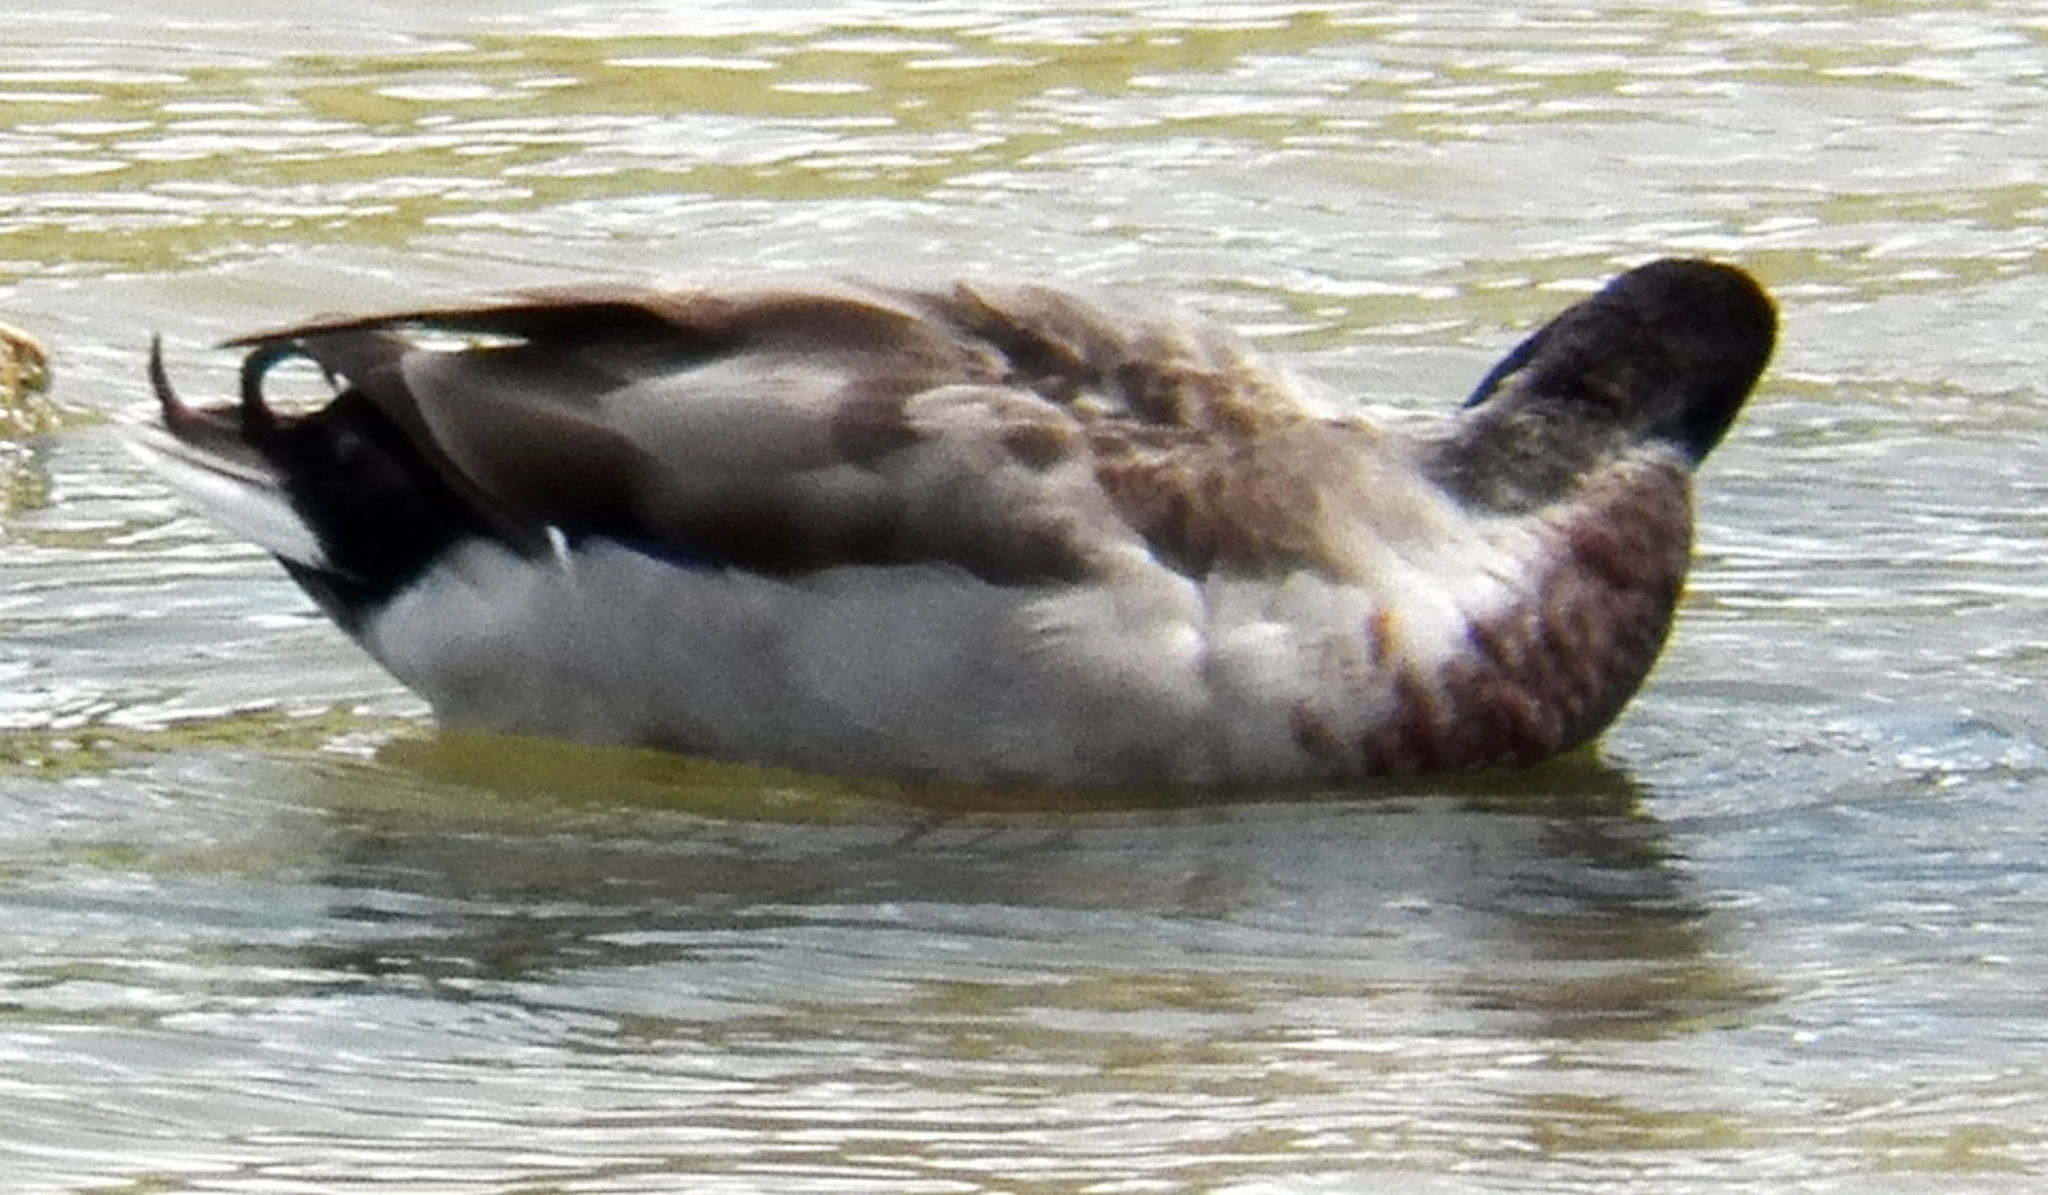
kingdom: Animalia
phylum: Chordata
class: Aves
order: Anseriformes
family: Anatidae
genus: Anas
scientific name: Anas platyrhynchos
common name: Mallard
